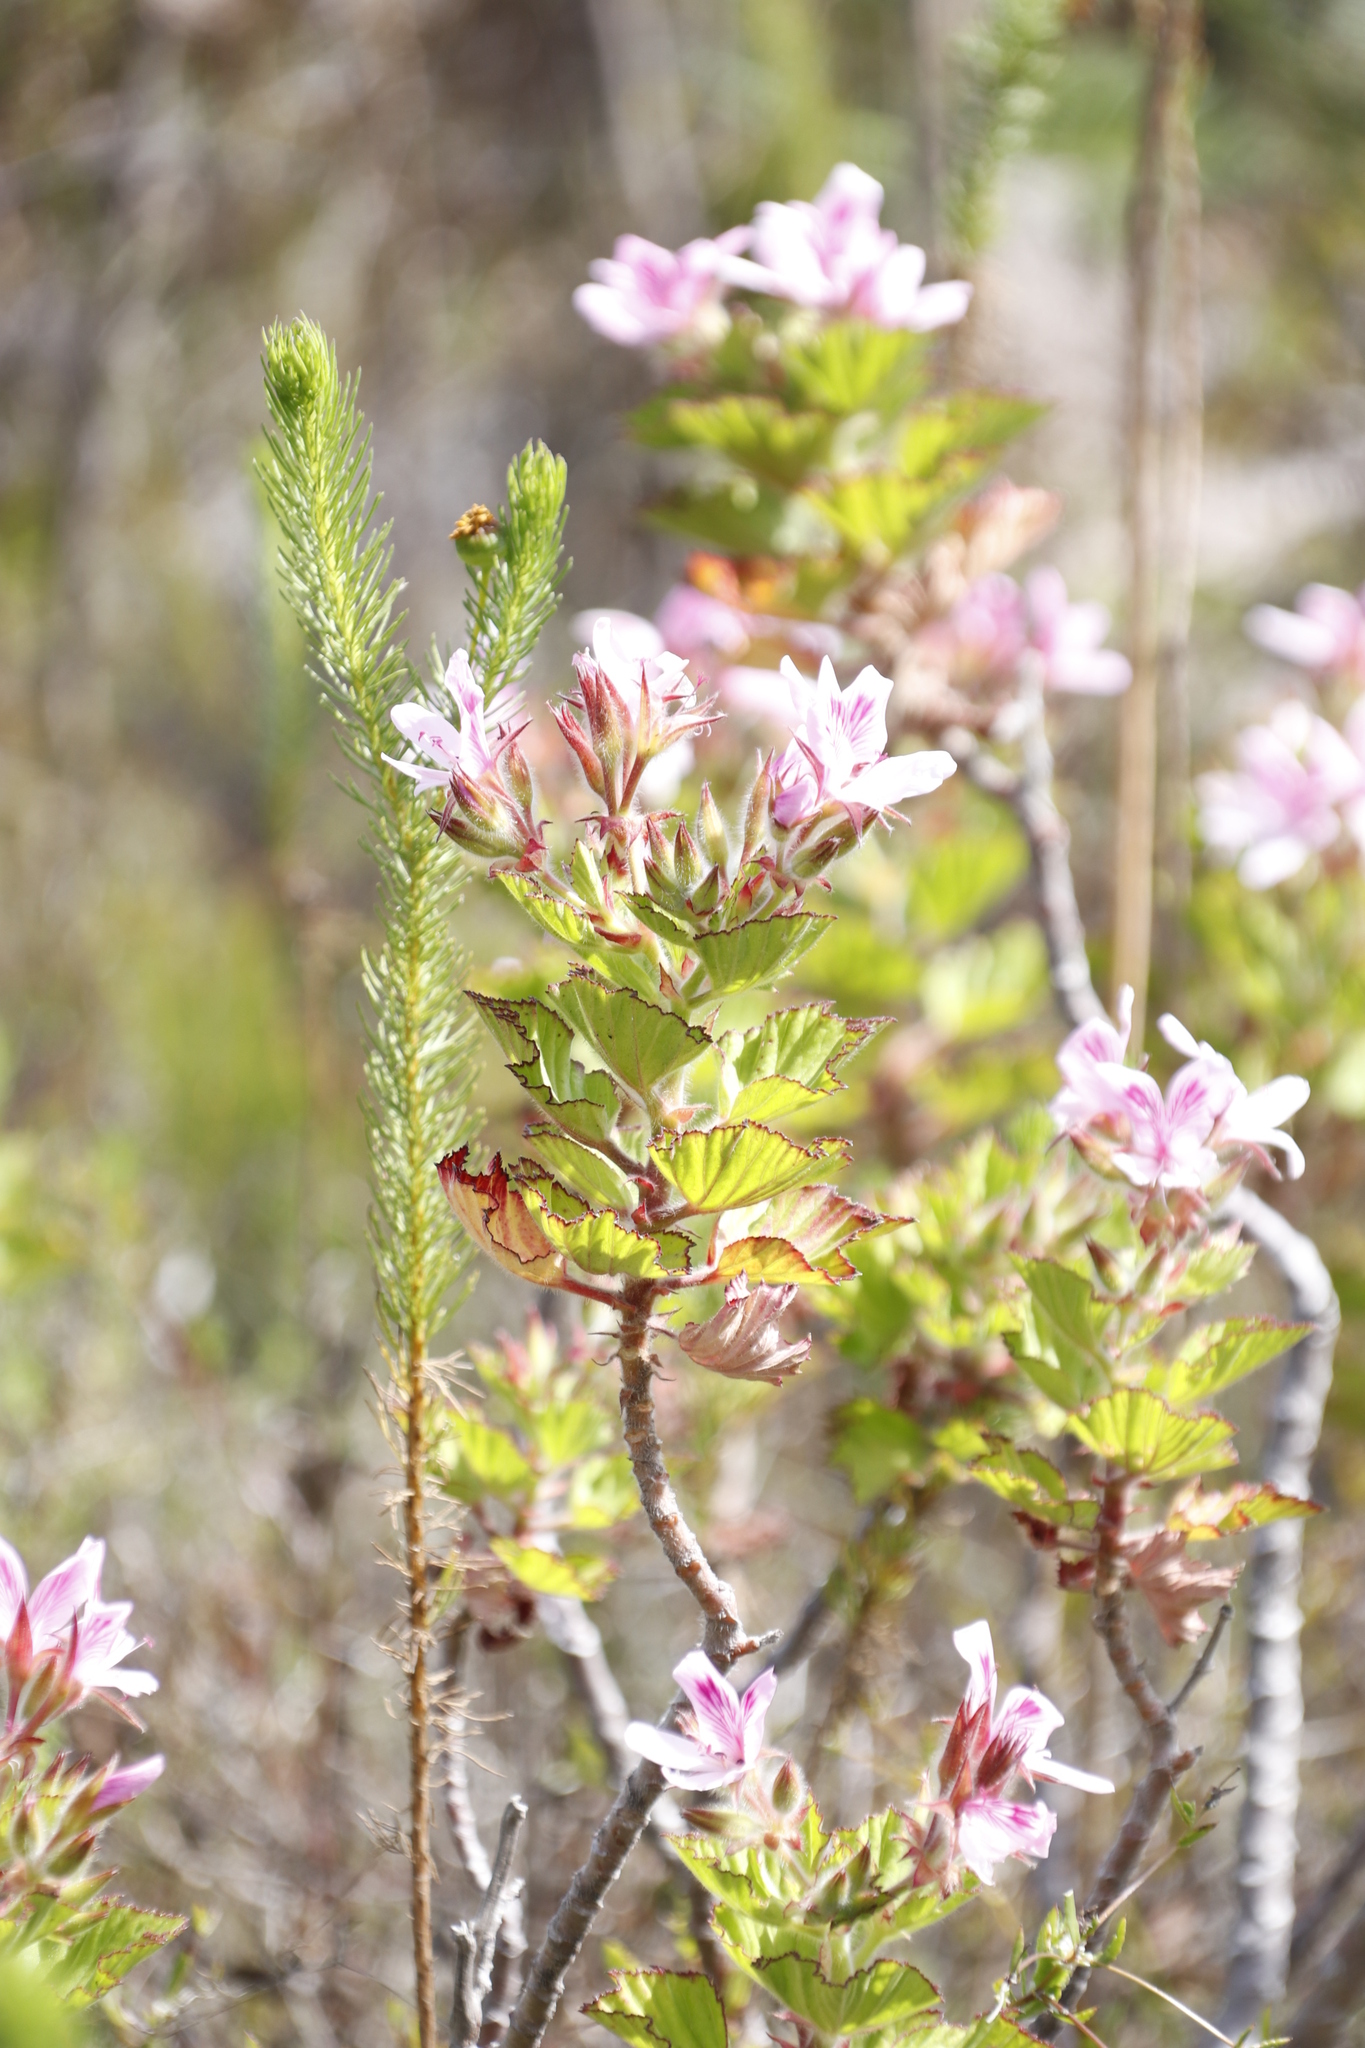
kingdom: Plantae
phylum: Tracheophyta
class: Magnoliopsida
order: Geraniales
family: Geraniaceae
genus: Pelargonium
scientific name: Pelargonium cucullatum
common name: Tree pelargonium
